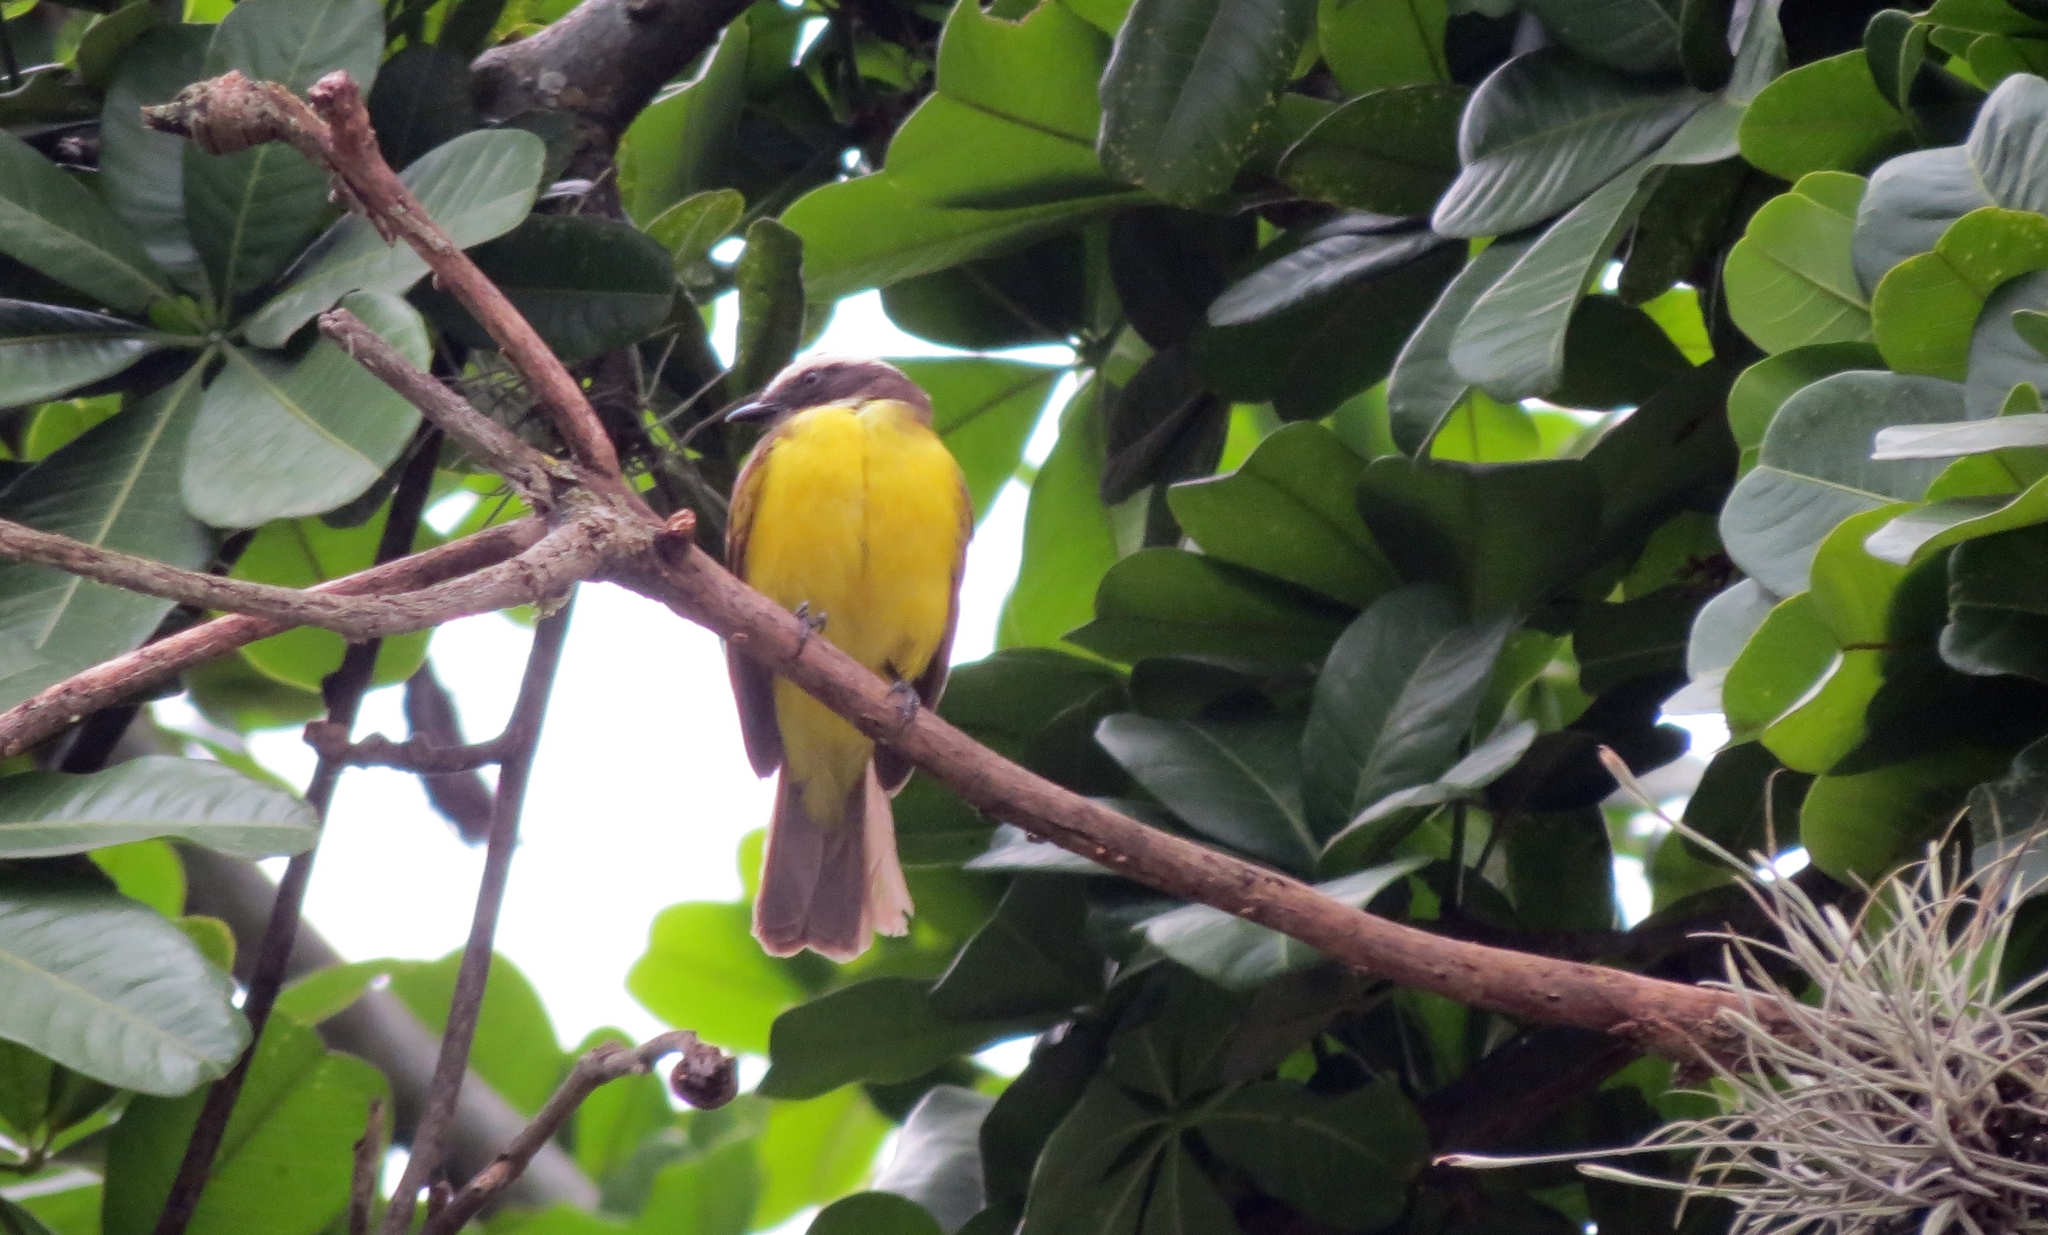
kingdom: Animalia
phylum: Chordata
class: Aves
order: Passeriformes
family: Tyrannidae
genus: Myiozetetes
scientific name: Myiozetetes cayanensis
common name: Rusty-margined flycatcher
